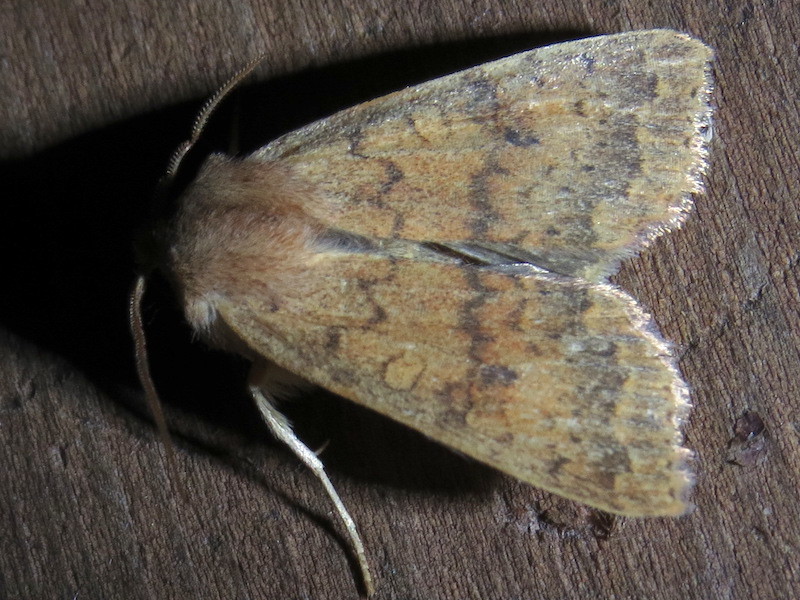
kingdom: Animalia
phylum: Arthropoda
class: Insecta
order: Lepidoptera
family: Noctuidae
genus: Agrochola
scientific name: Agrochola bicolorago
